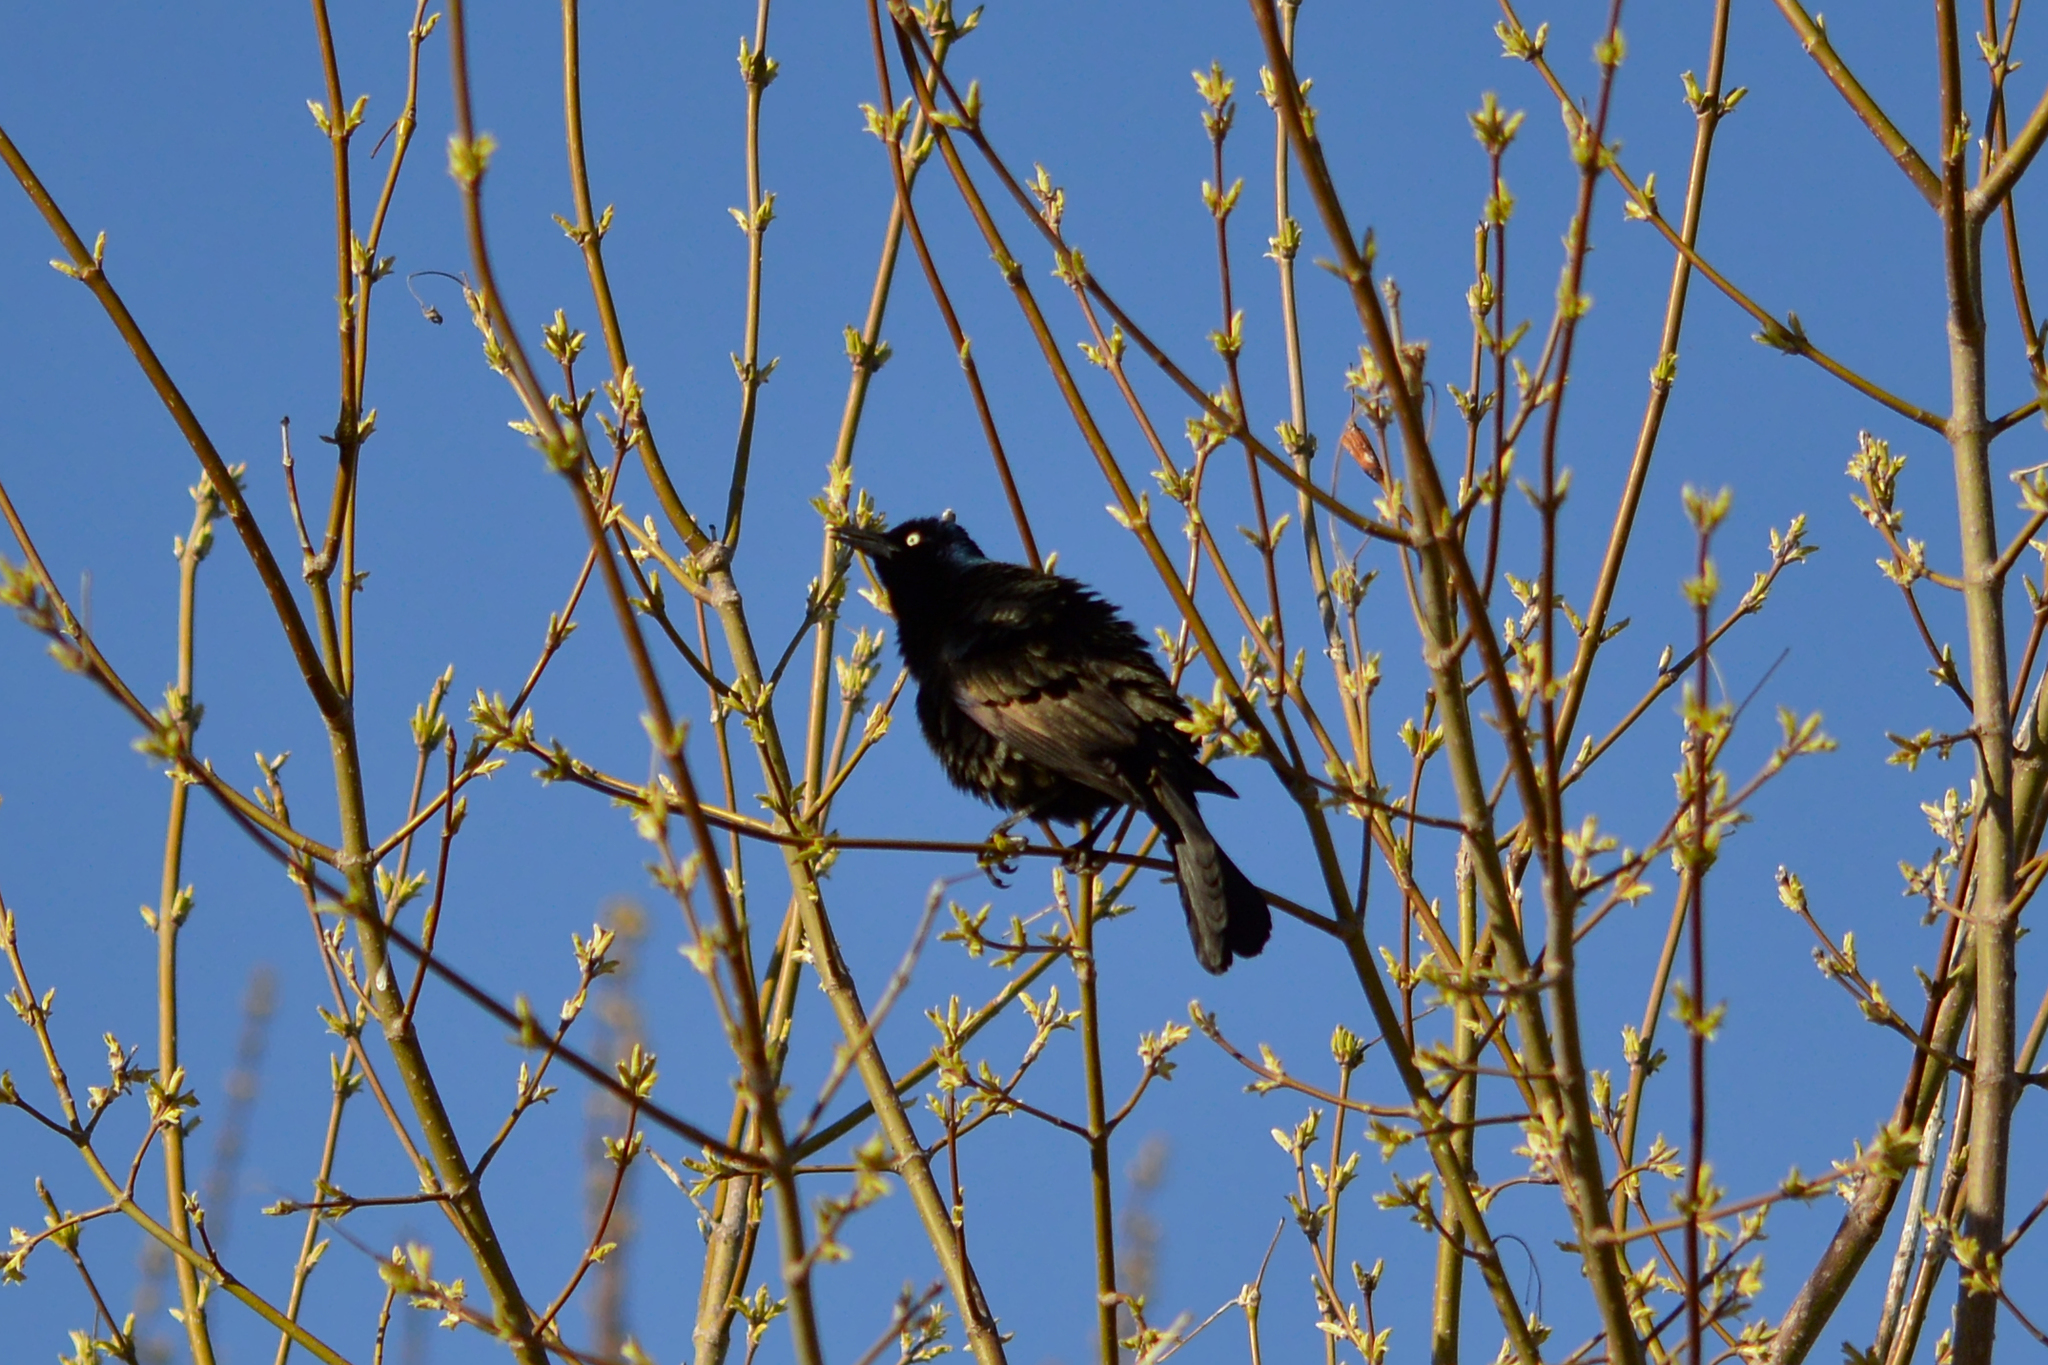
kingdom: Animalia
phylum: Chordata
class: Aves
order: Passeriformes
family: Icteridae
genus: Quiscalus
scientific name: Quiscalus quiscula
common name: Common grackle
